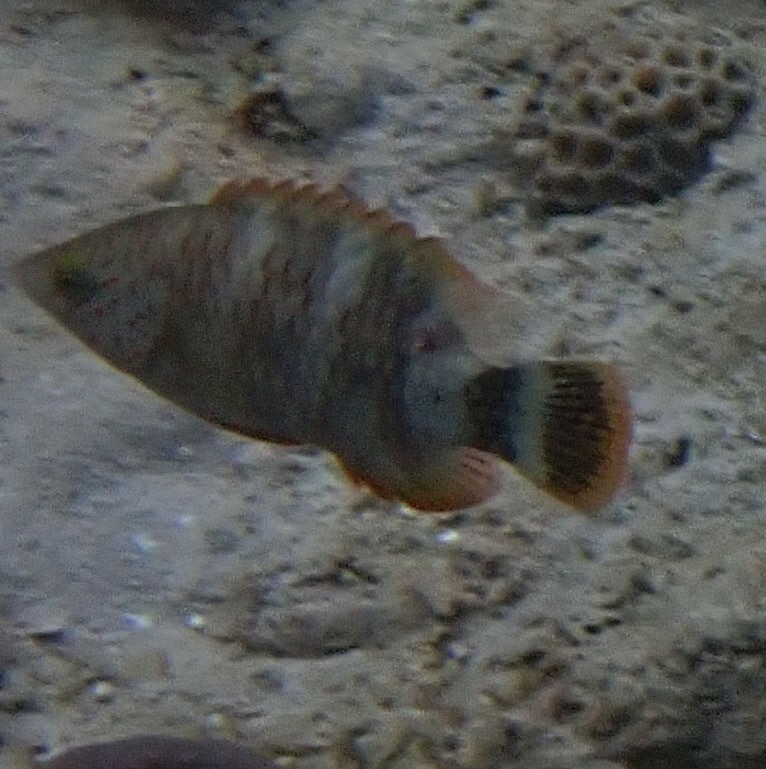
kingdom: Animalia
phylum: Chordata
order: Perciformes
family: Labridae
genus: Cheilinus
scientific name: Cheilinus trilobatus
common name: Tripletail maori wrasse
